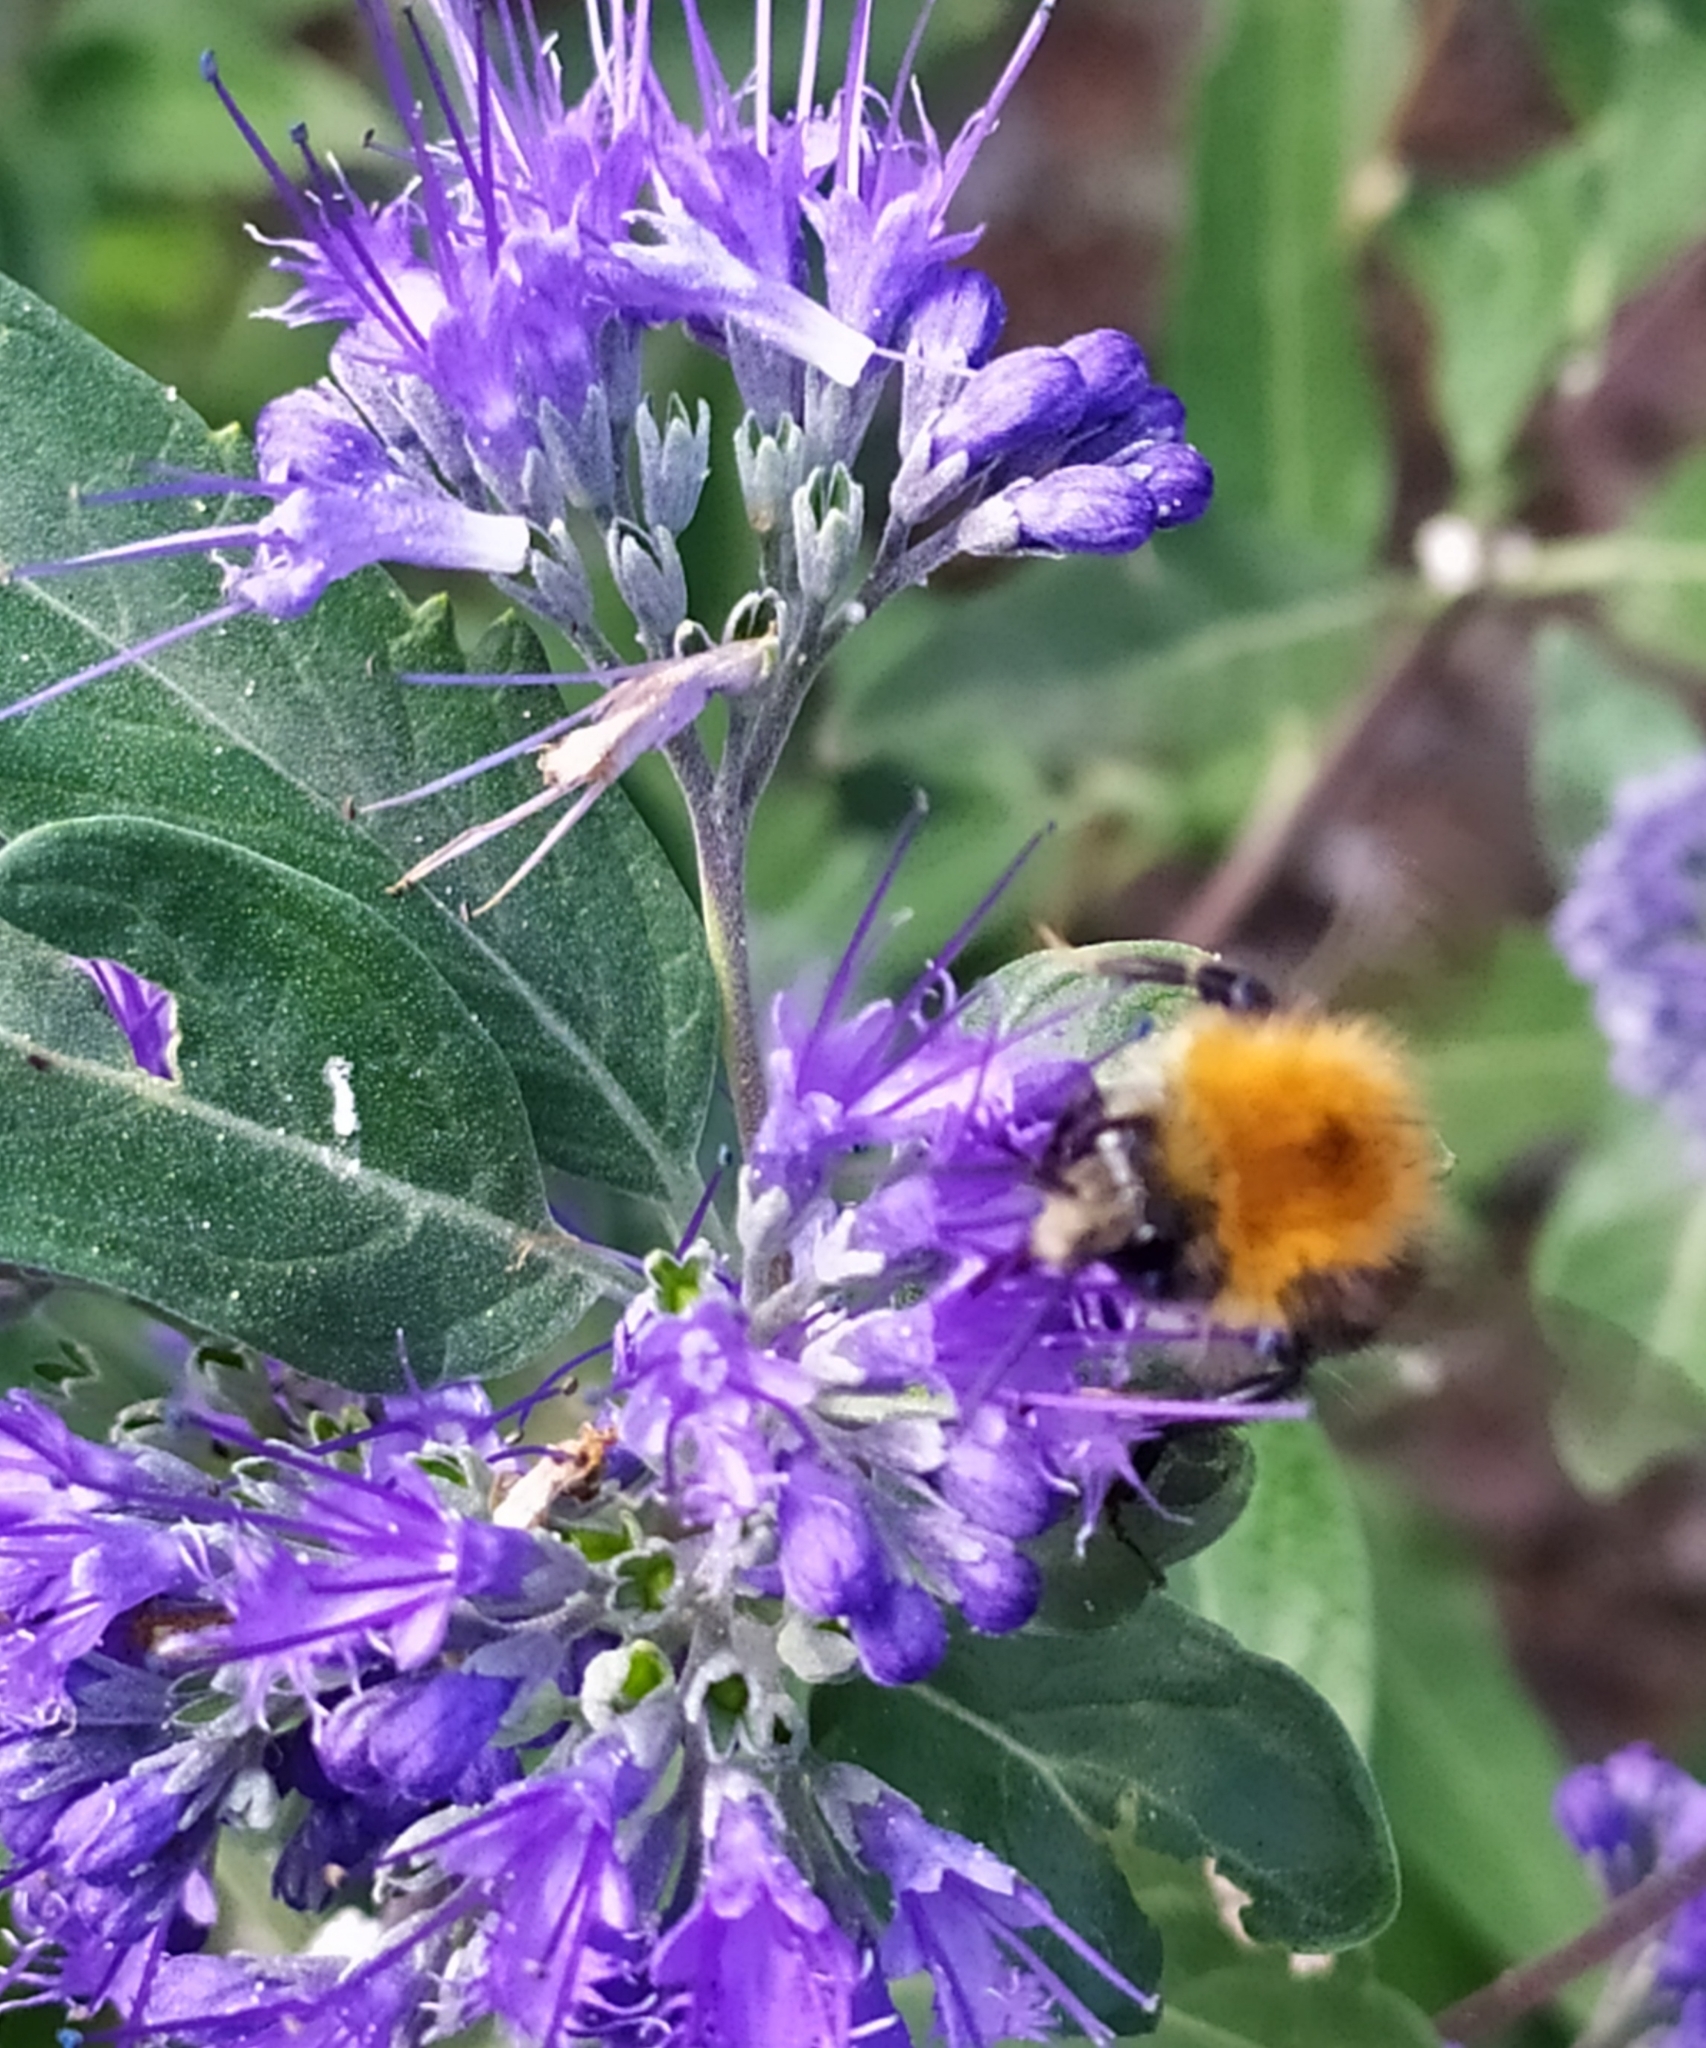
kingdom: Animalia
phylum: Arthropoda
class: Insecta
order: Hymenoptera
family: Apidae
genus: Bombus
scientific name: Bombus pascuorum
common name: Common carder bee
